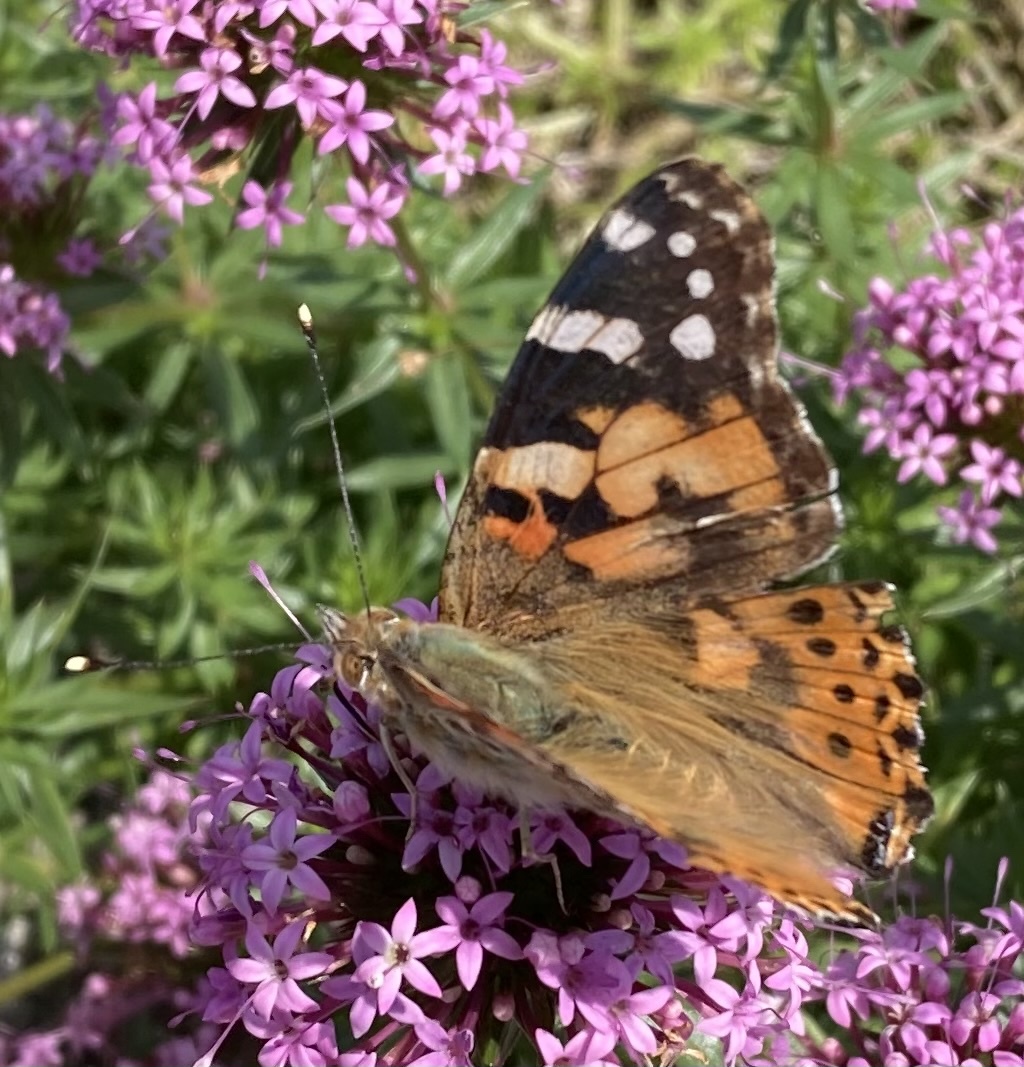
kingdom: Animalia
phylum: Arthropoda
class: Insecta
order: Lepidoptera
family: Nymphalidae
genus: Vanessa
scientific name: Vanessa cardui
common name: Painted lady
